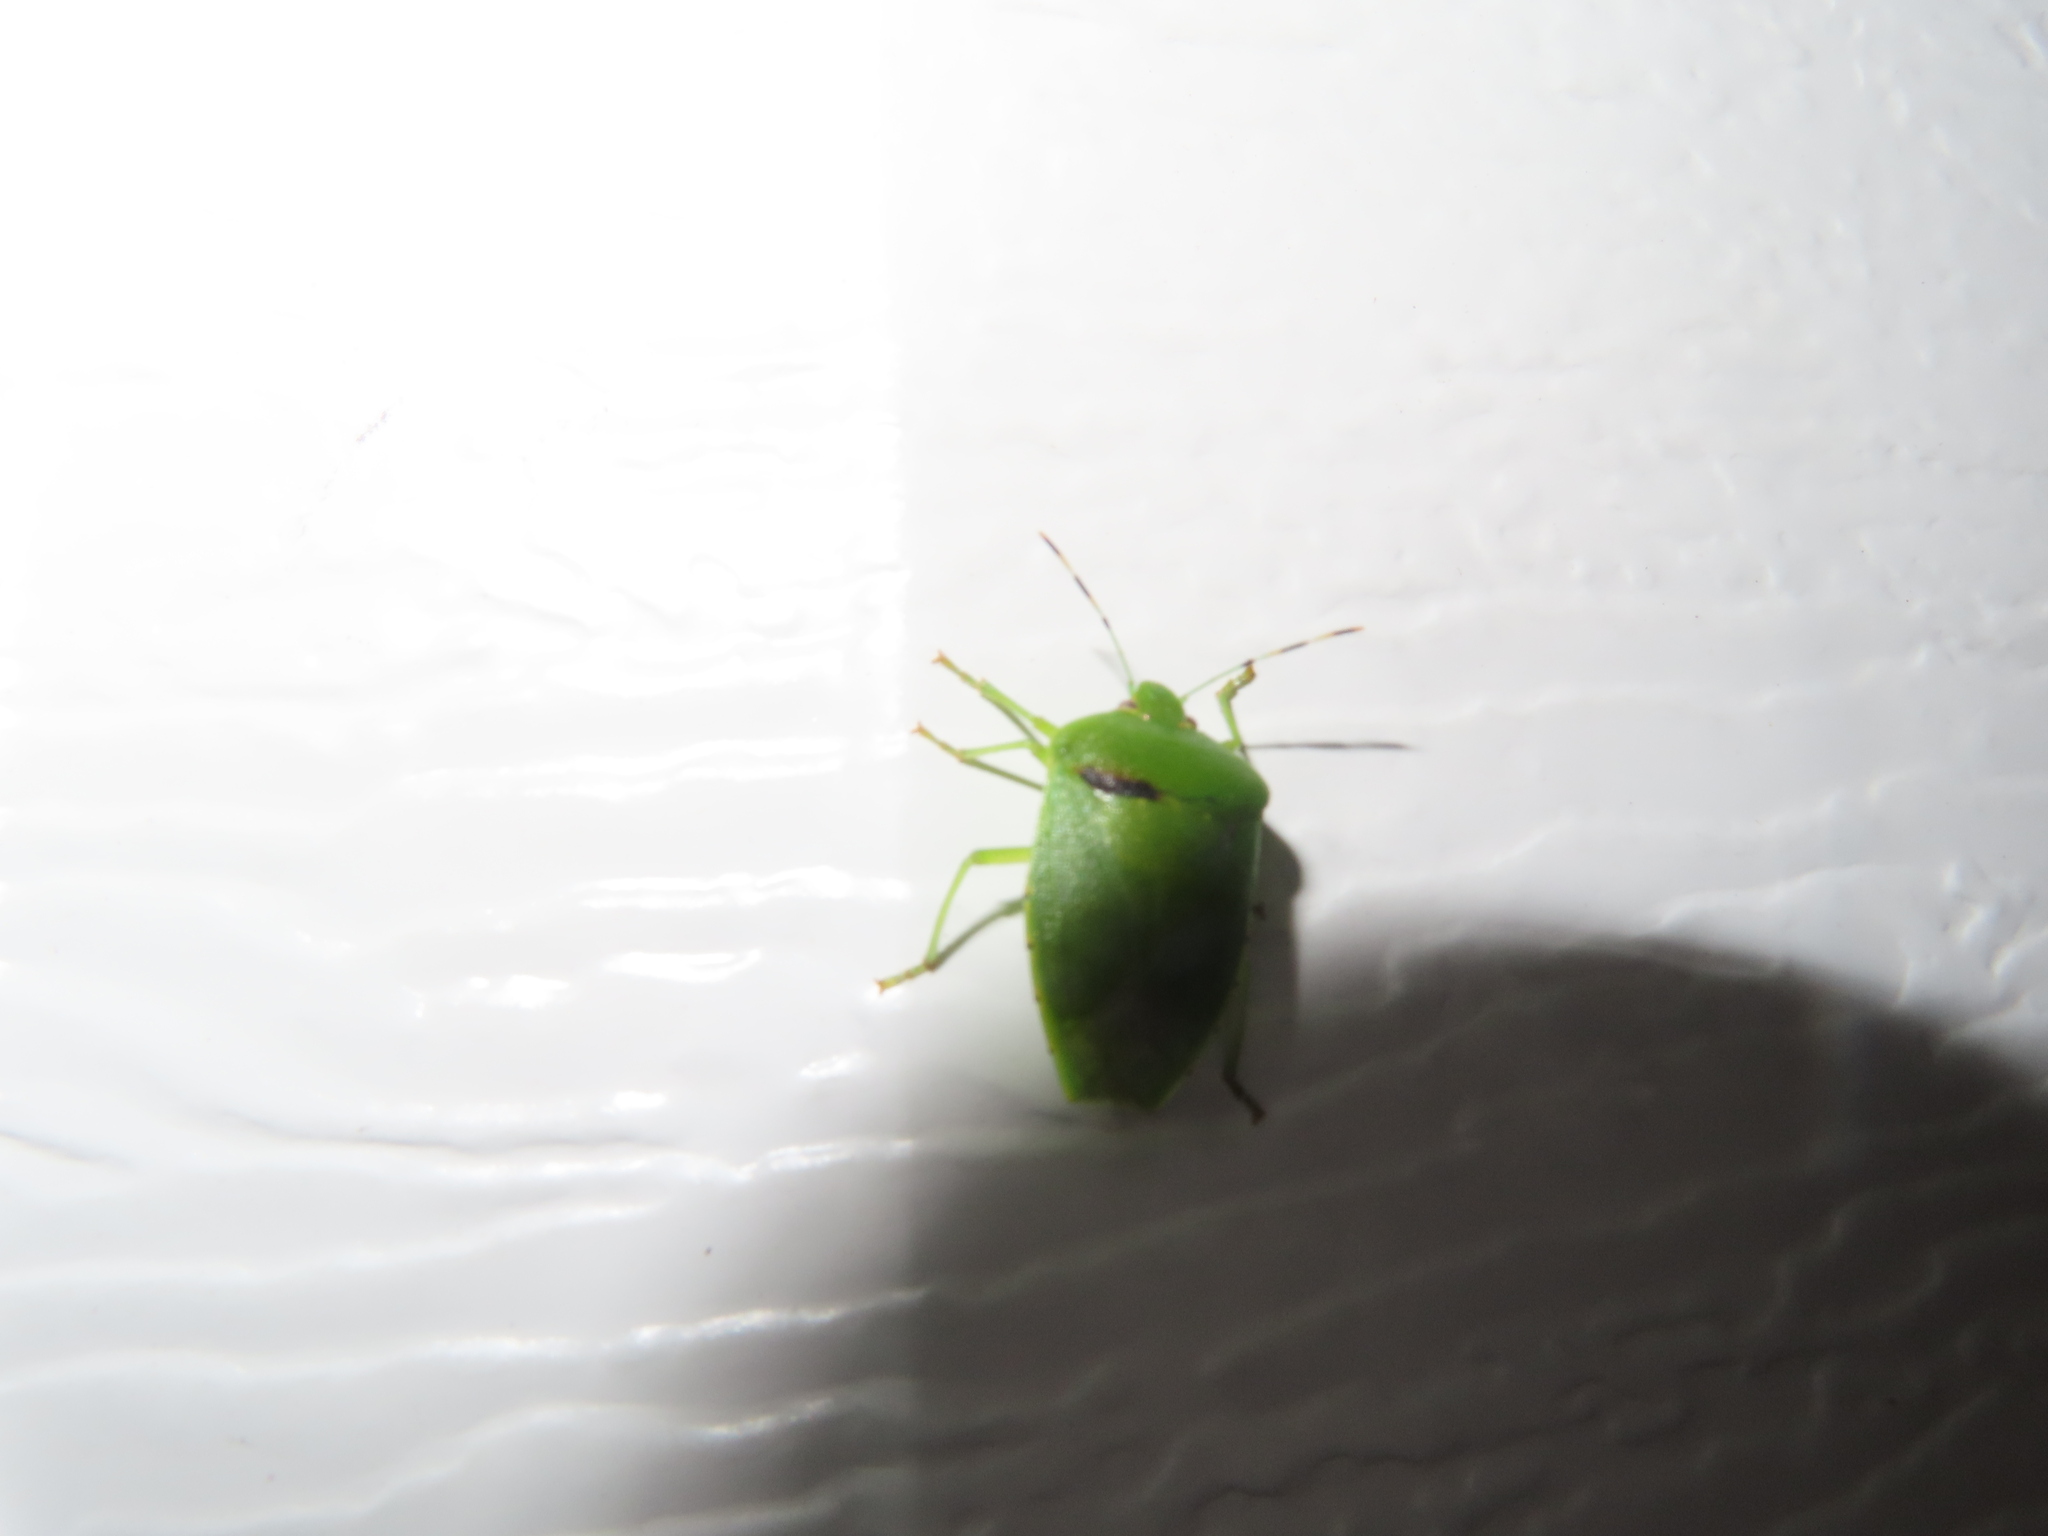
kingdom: Animalia
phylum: Arthropoda
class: Insecta
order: Hemiptera
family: Pentatomidae
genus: Chinavia
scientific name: Chinavia hilaris
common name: Green stink bug
